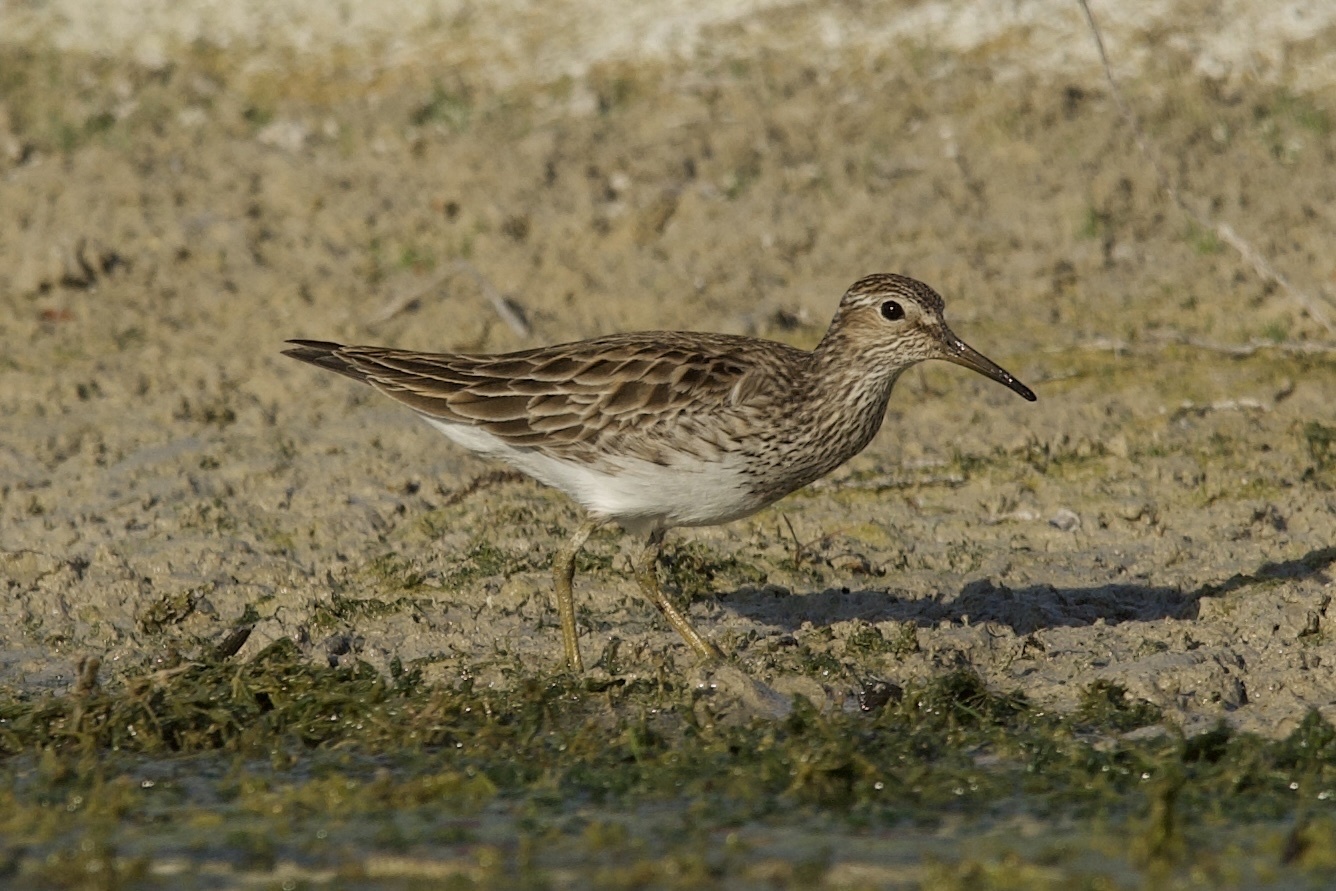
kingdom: Animalia
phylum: Chordata
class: Aves
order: Charadriiformes
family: Scolopacidae
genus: Calidris
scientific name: Calidris melanotos
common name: Pectoral sandpiper
